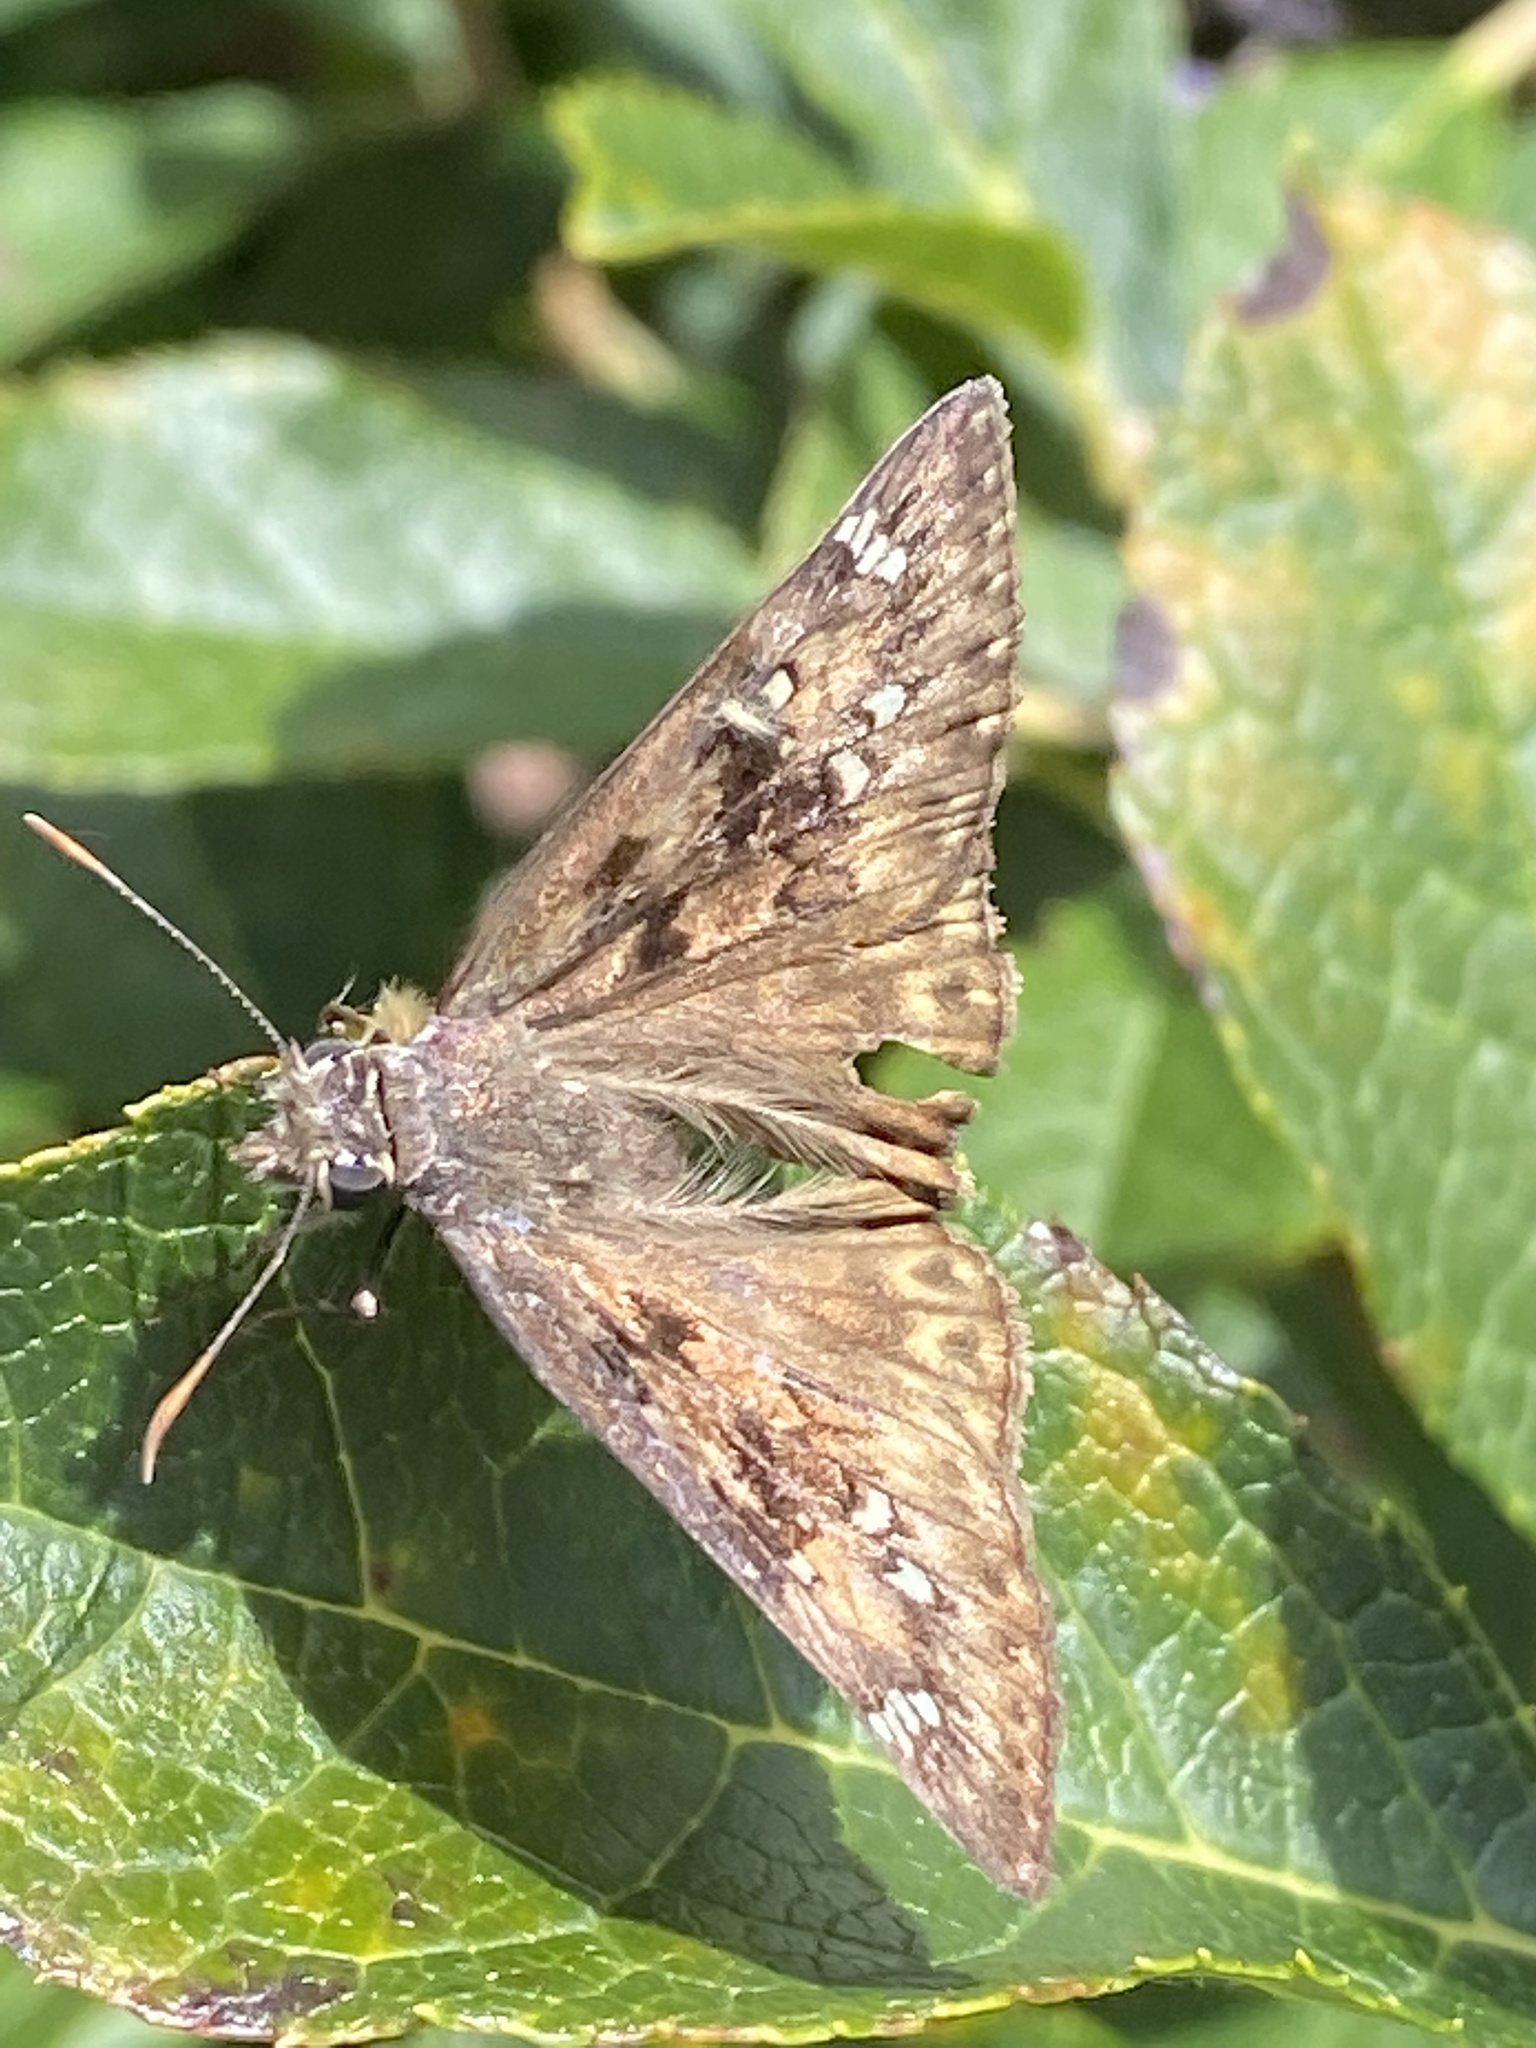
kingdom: Animalia
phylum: Arthropoda
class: Insecta
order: Lepidoptera
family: Hesperiidae
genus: Erynnis
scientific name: Erynnis horatius
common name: Horace's duskywing
